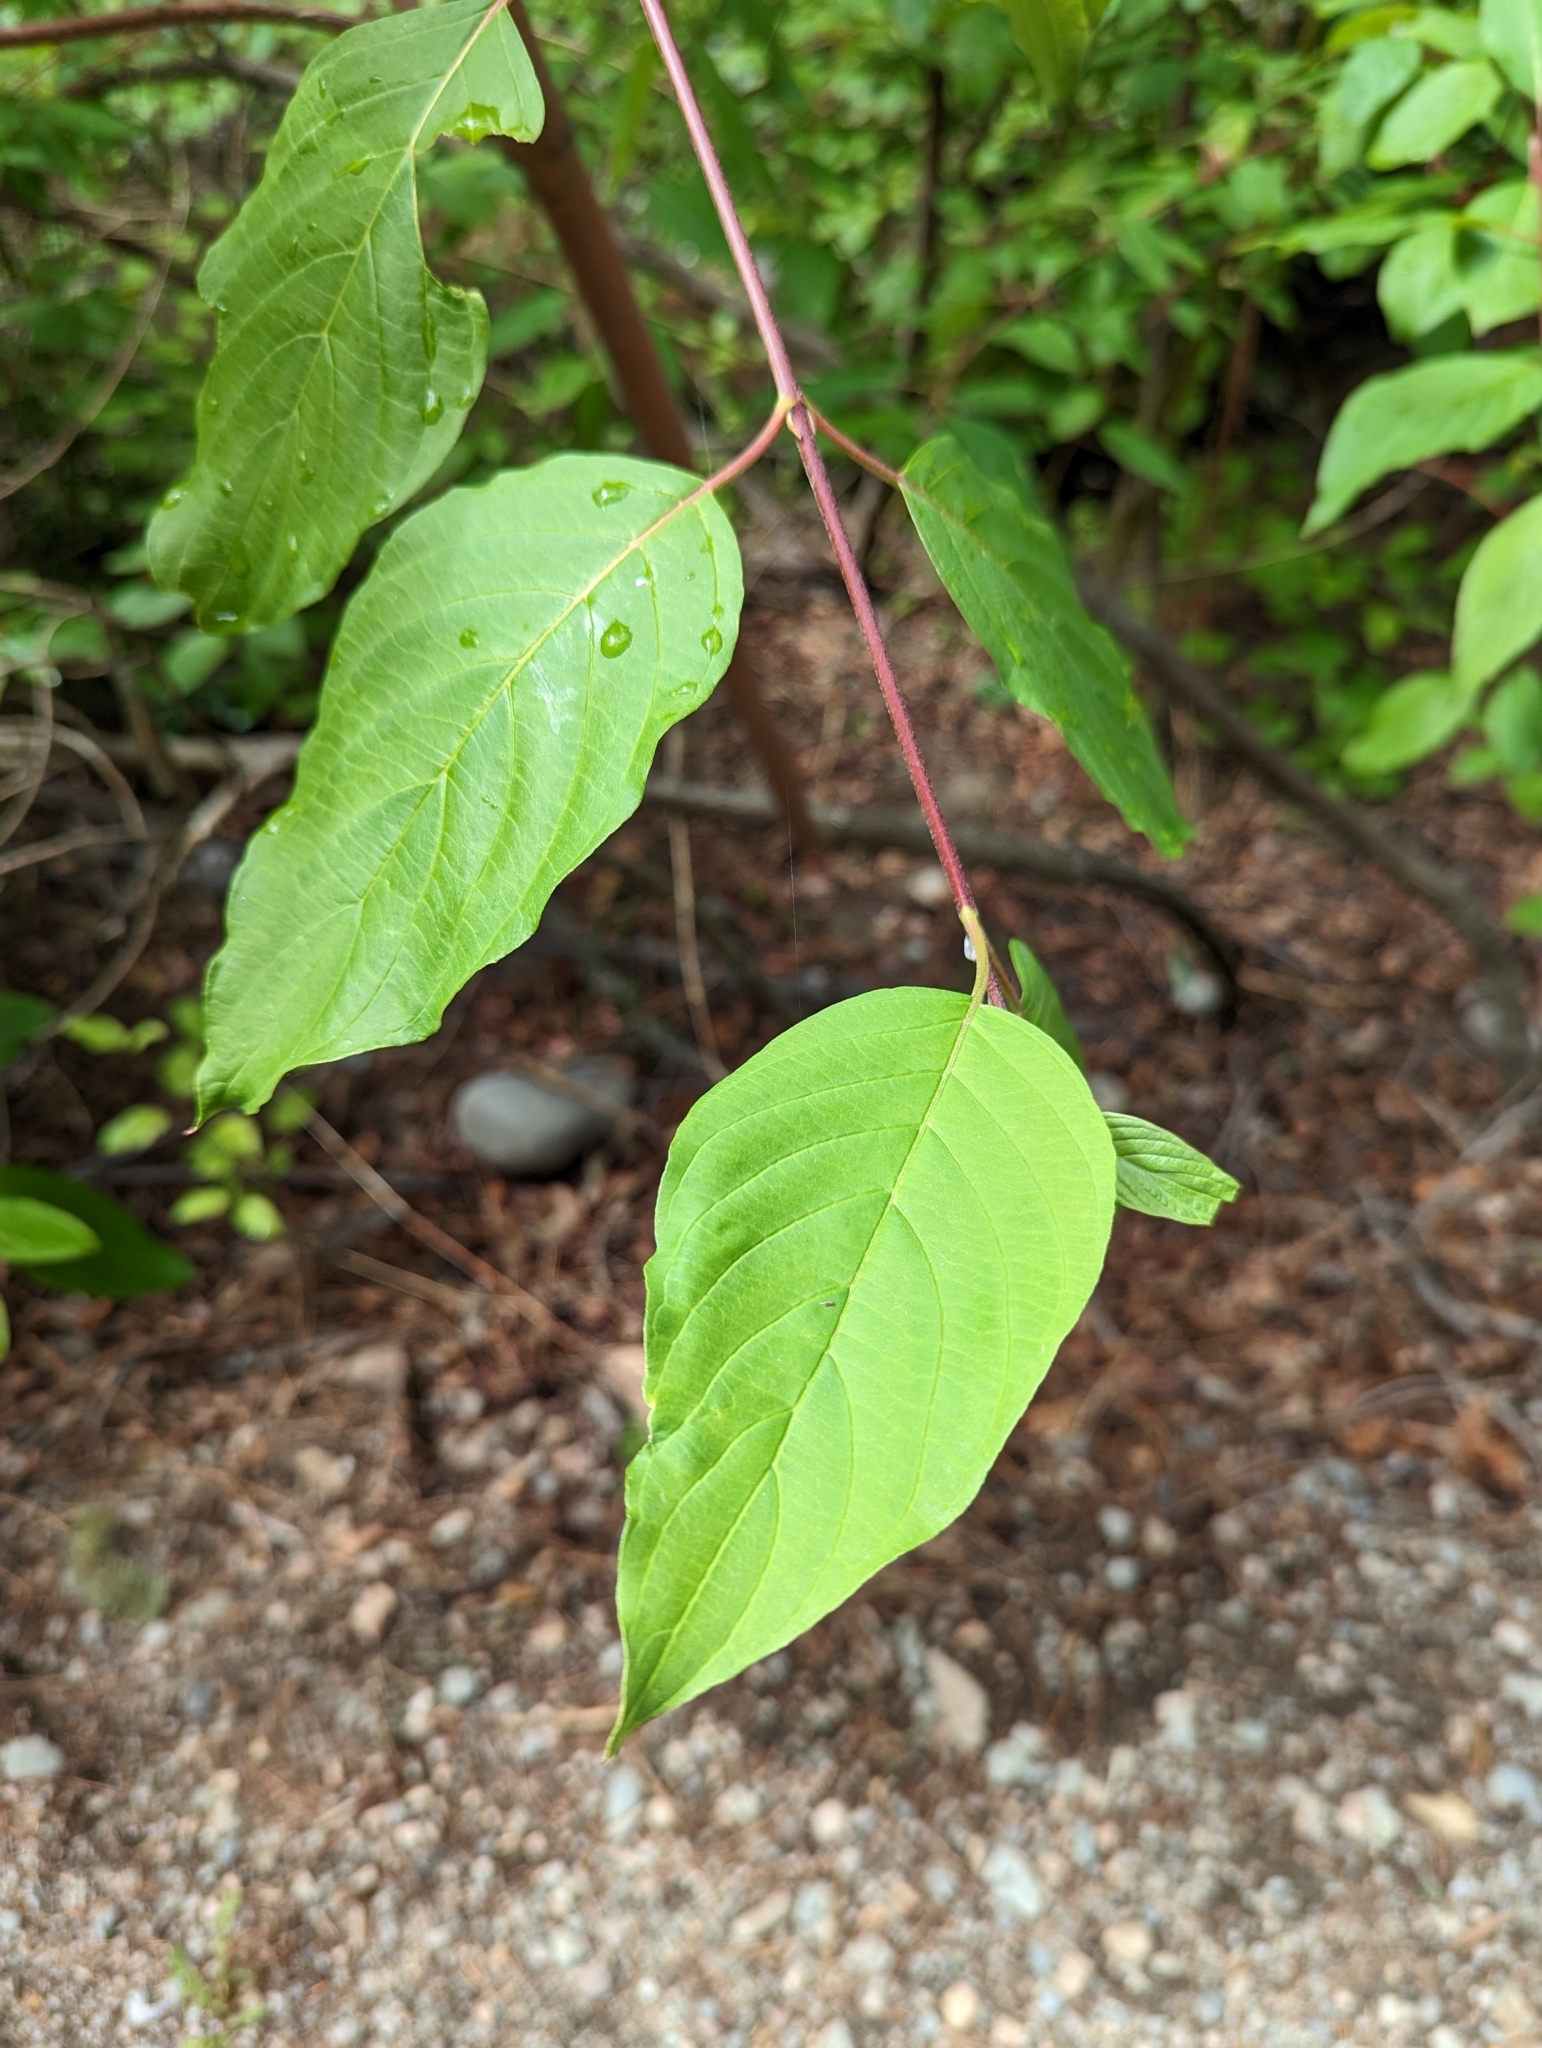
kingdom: Plantae
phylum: Tracheophyta
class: Magnoliopsida
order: Cornales
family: Cornaceae
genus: Cornus
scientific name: Cornus sericea
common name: Red-osier dogwood
